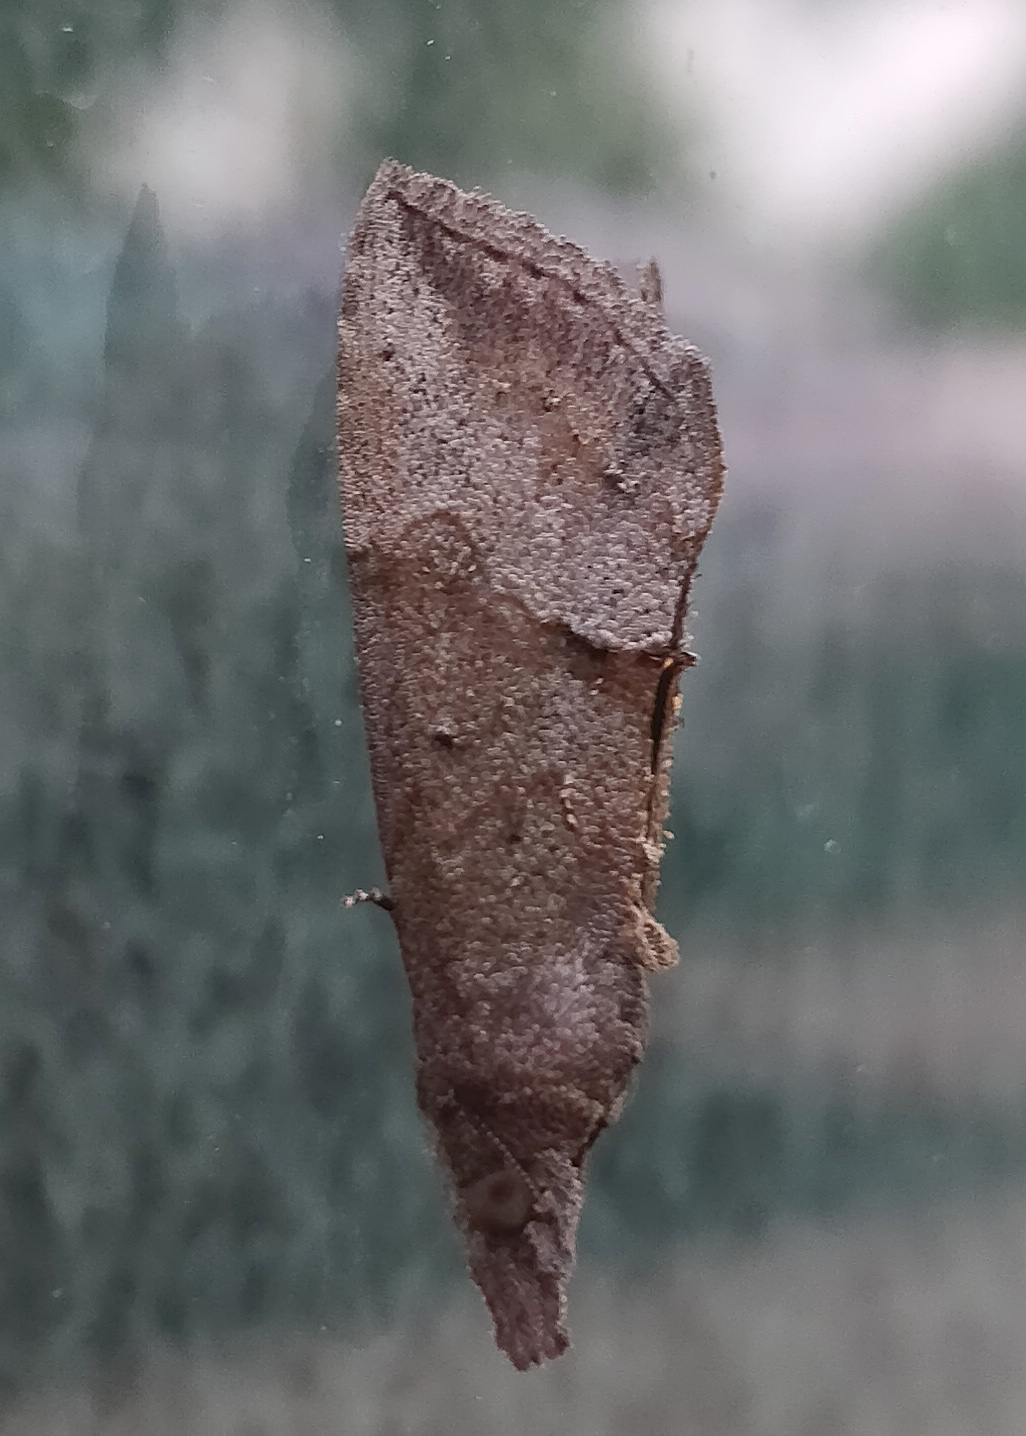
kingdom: Animalia
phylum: Arthropoda
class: Insecta
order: Lepidoptera
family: Erebidae
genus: Hypena
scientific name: Hypena scabra
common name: Green cloverworm
